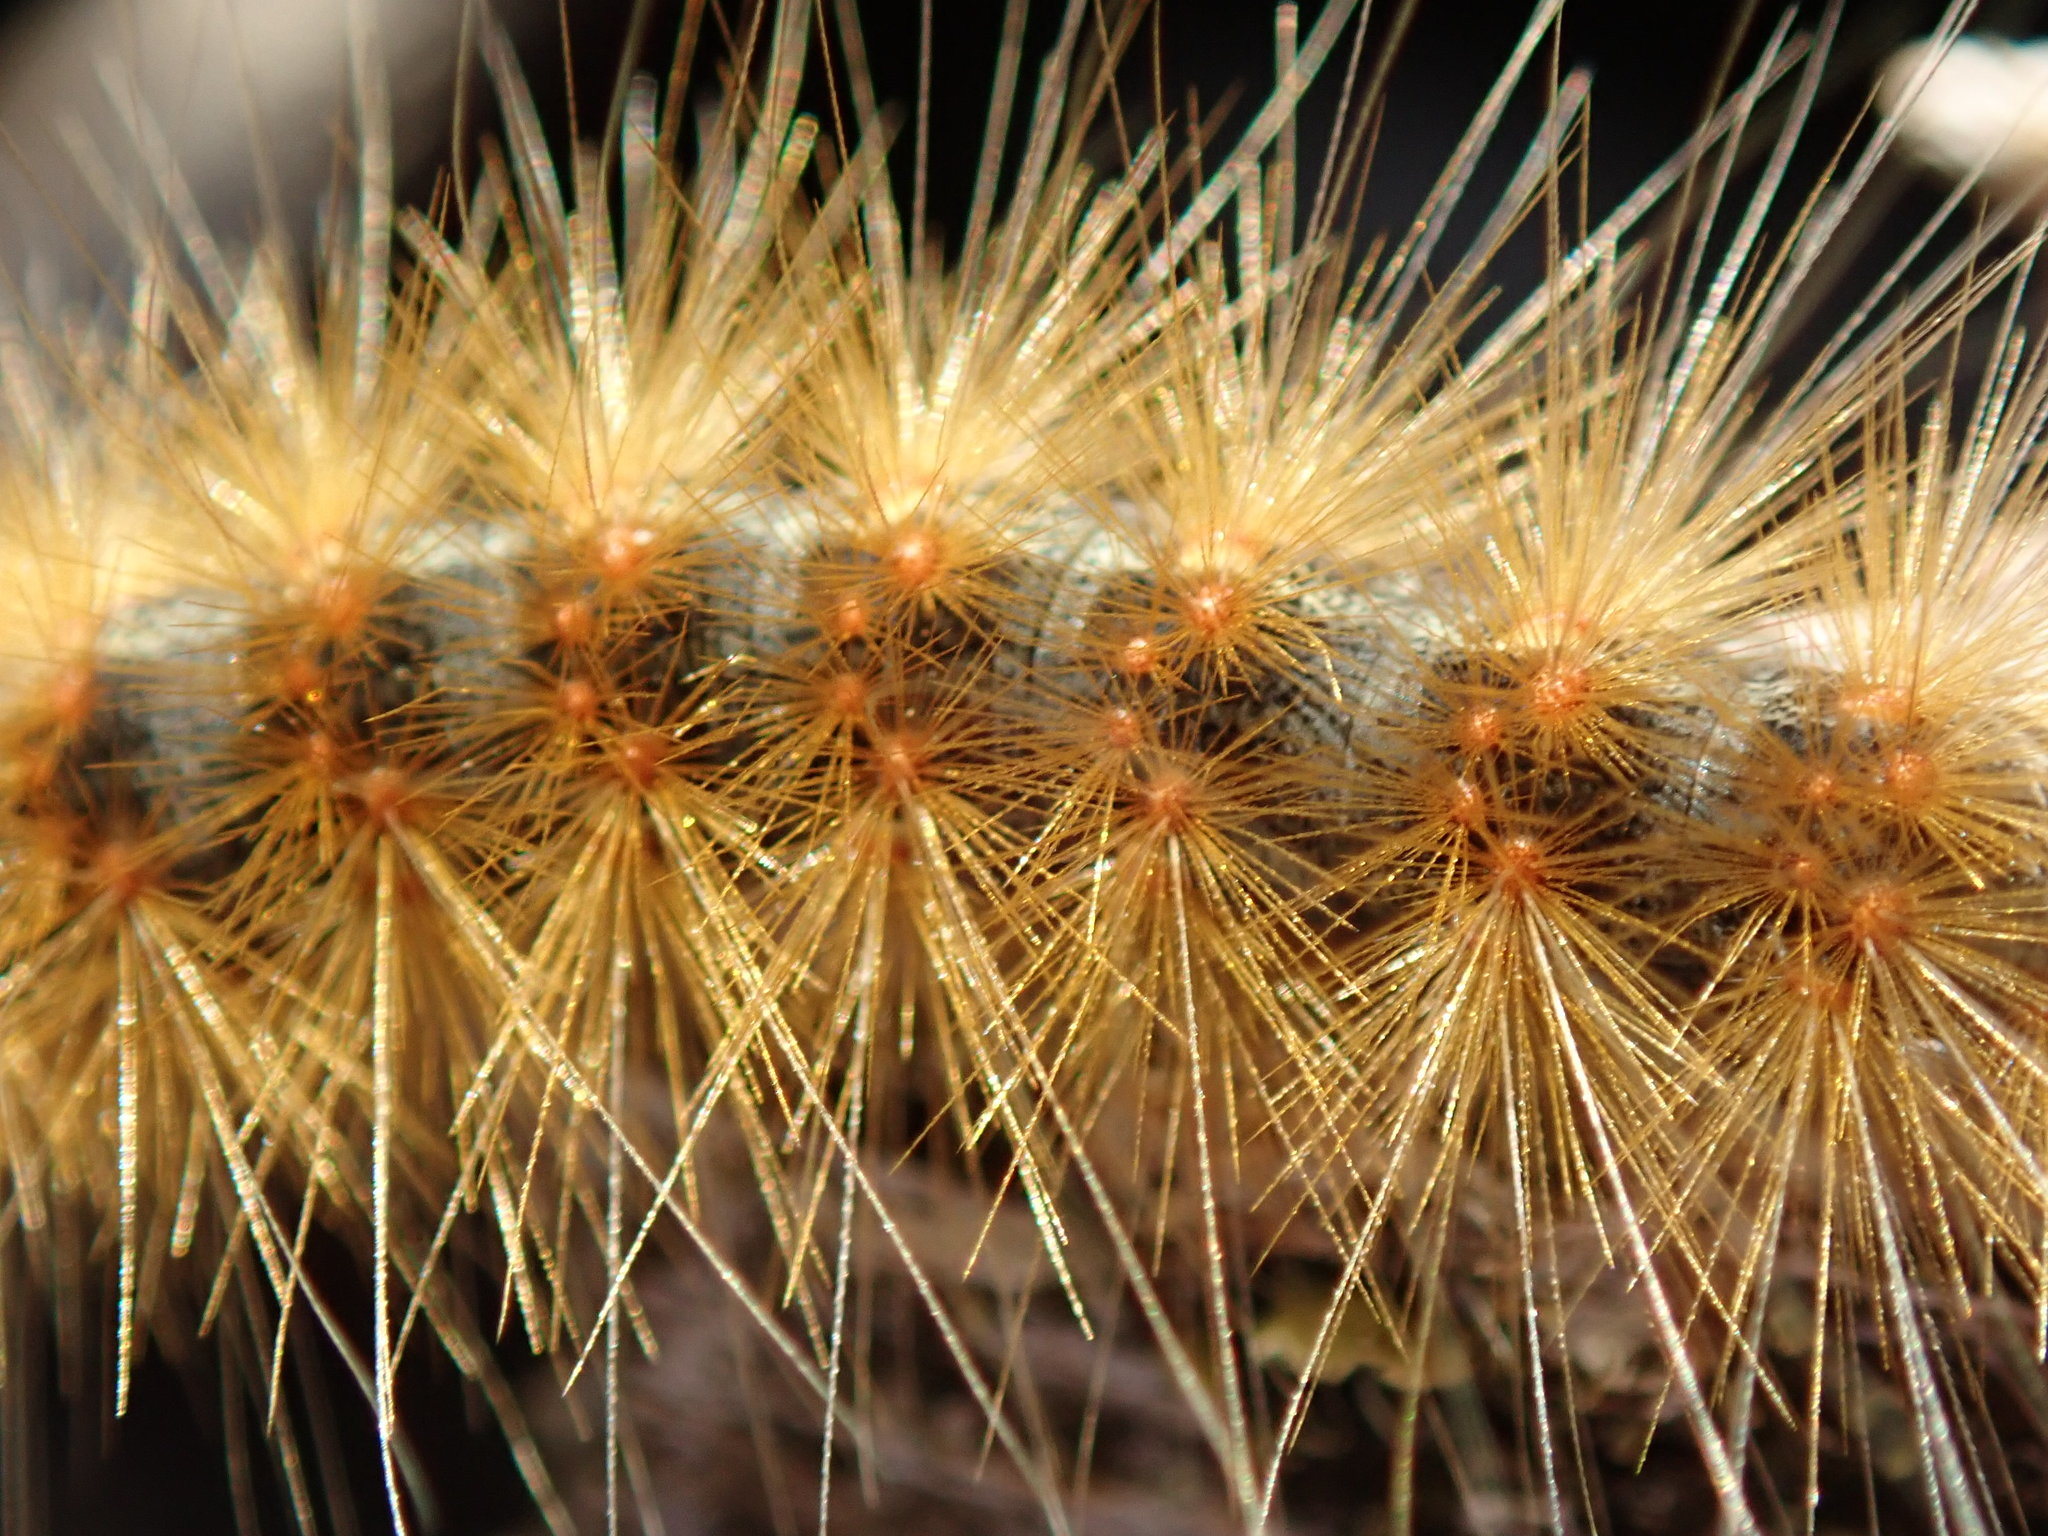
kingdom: Animalia
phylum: Arthropoda
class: Insecta
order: Lepidoptera
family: Erebidae
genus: Hyphantria
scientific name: Hyphantria cunea
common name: American white moth
